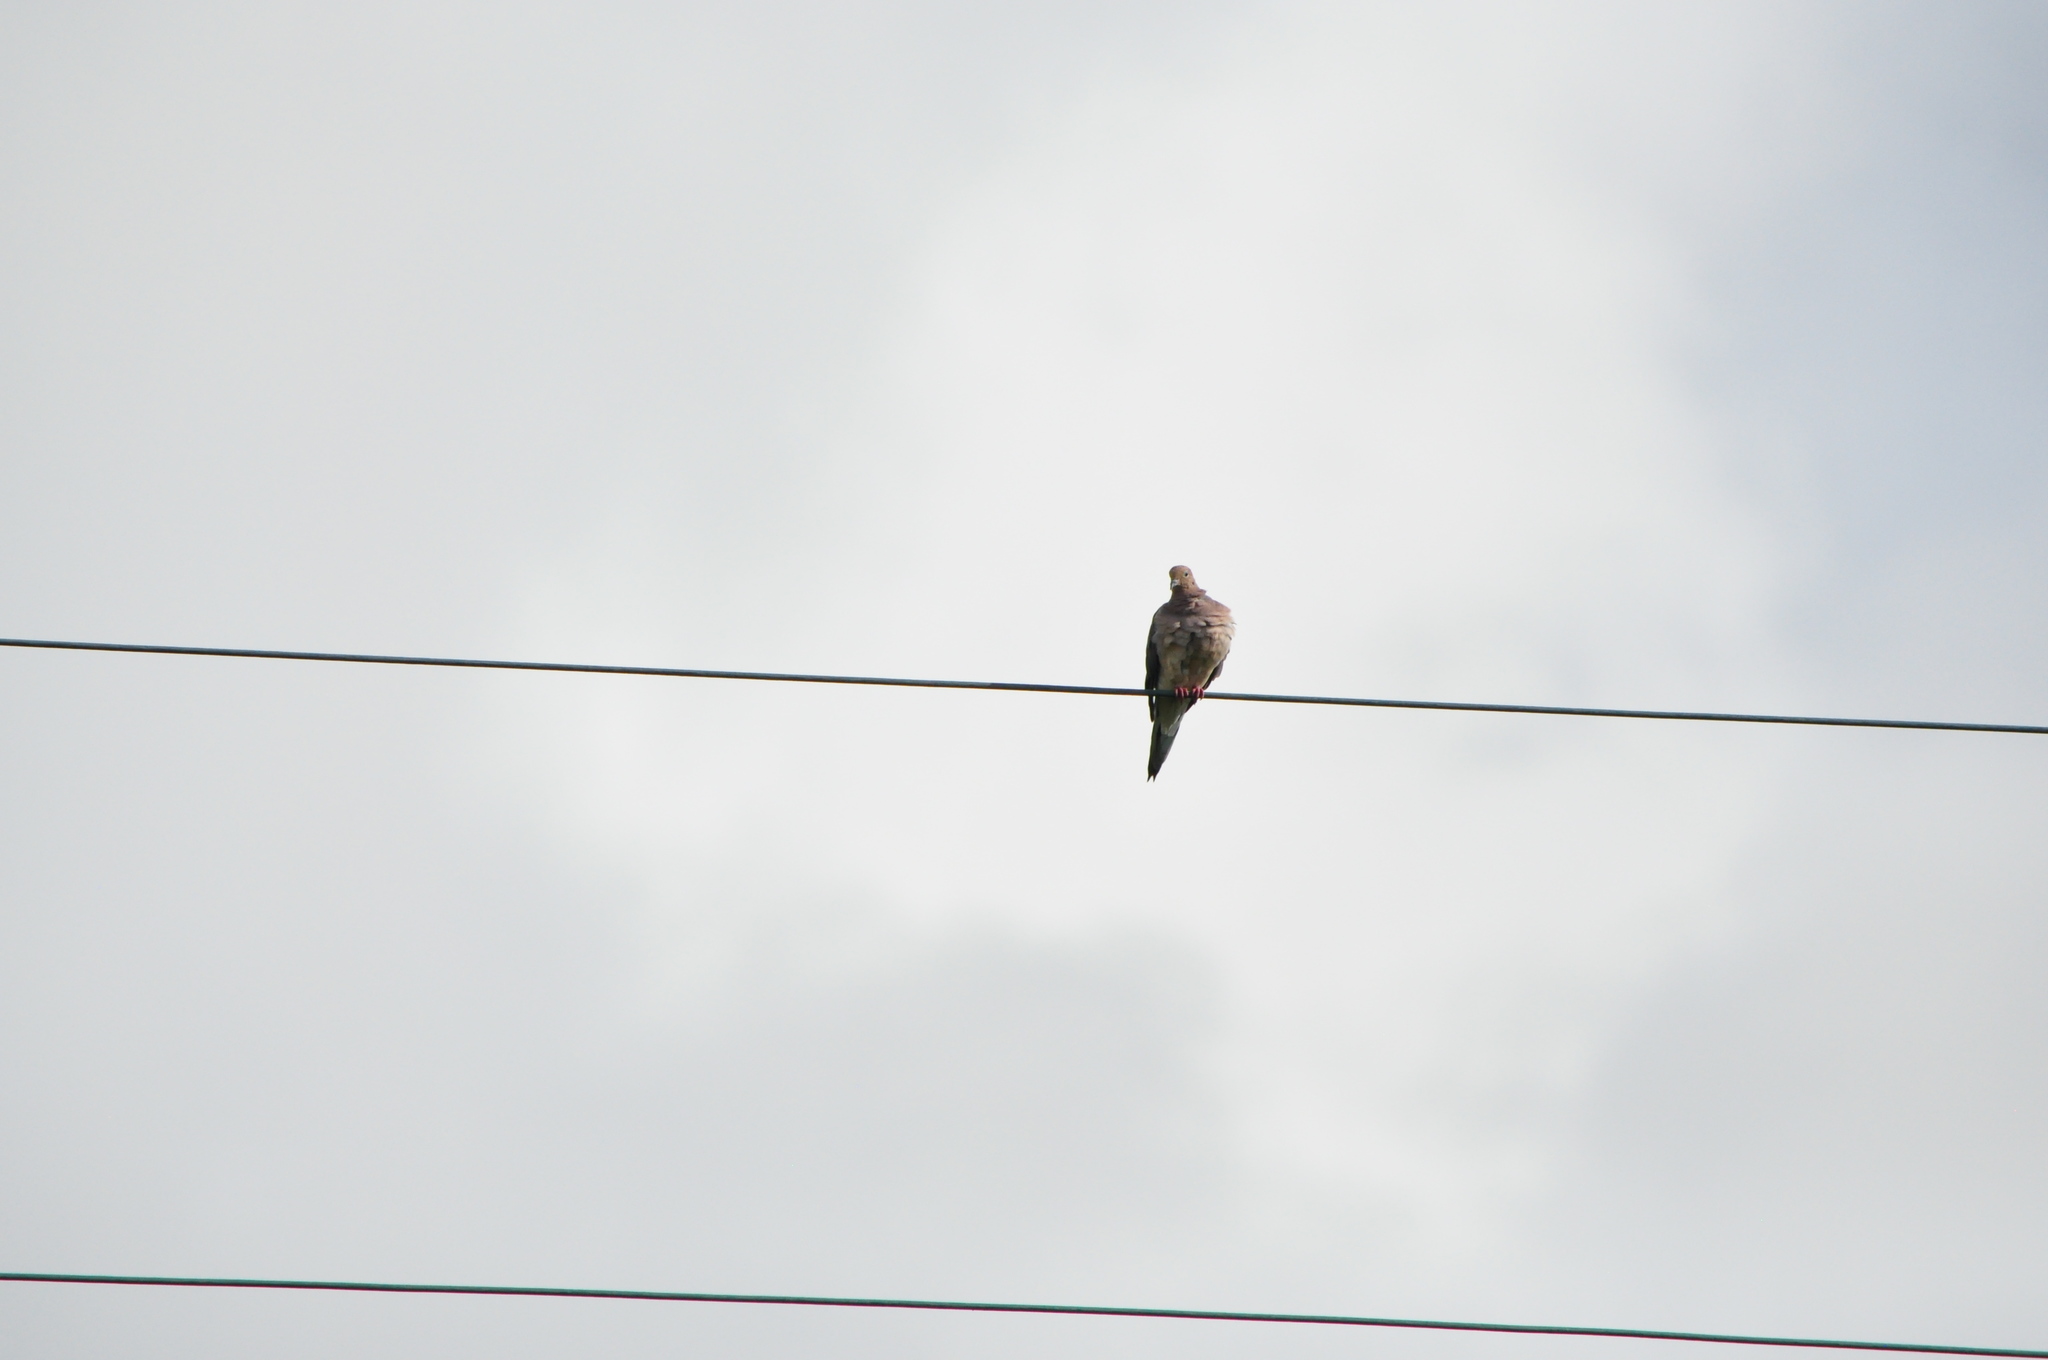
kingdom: Animalia
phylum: Chordata
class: Aves
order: Columbiformes
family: Columbidae
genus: Zenaida
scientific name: Zenaida macroura
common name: Mourning dove
